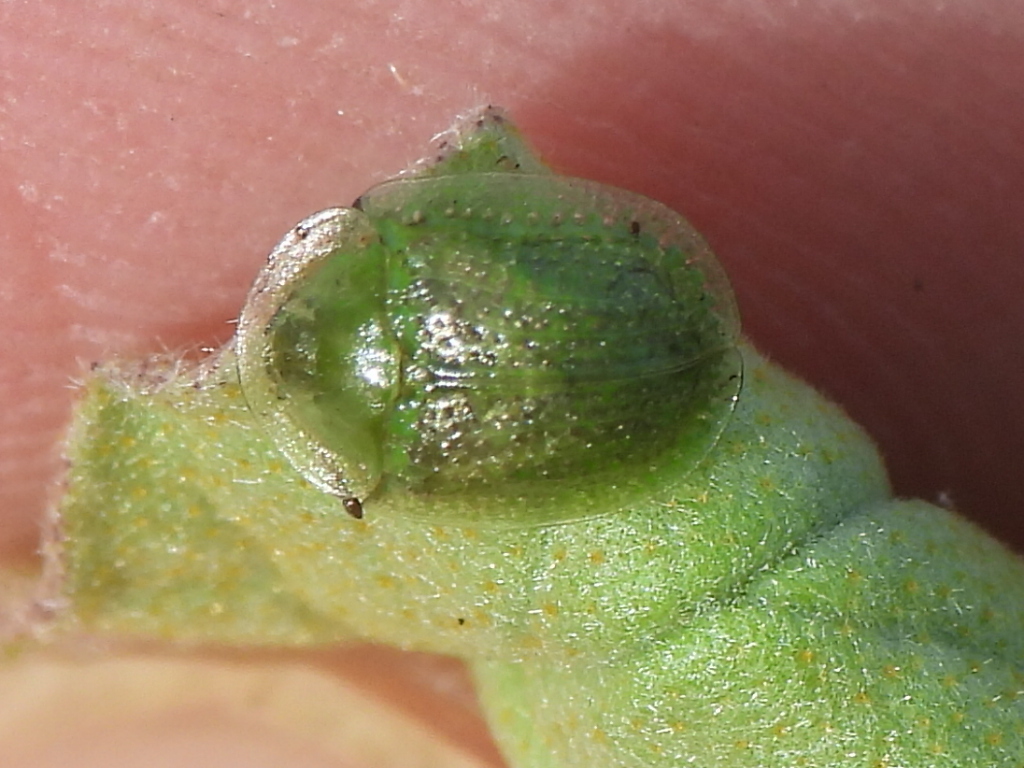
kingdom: Animalia
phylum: Arthropoda
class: Insecta
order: Coleoptera
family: Chrysomelidae
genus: Gratiana
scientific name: Gratiana pallidula
